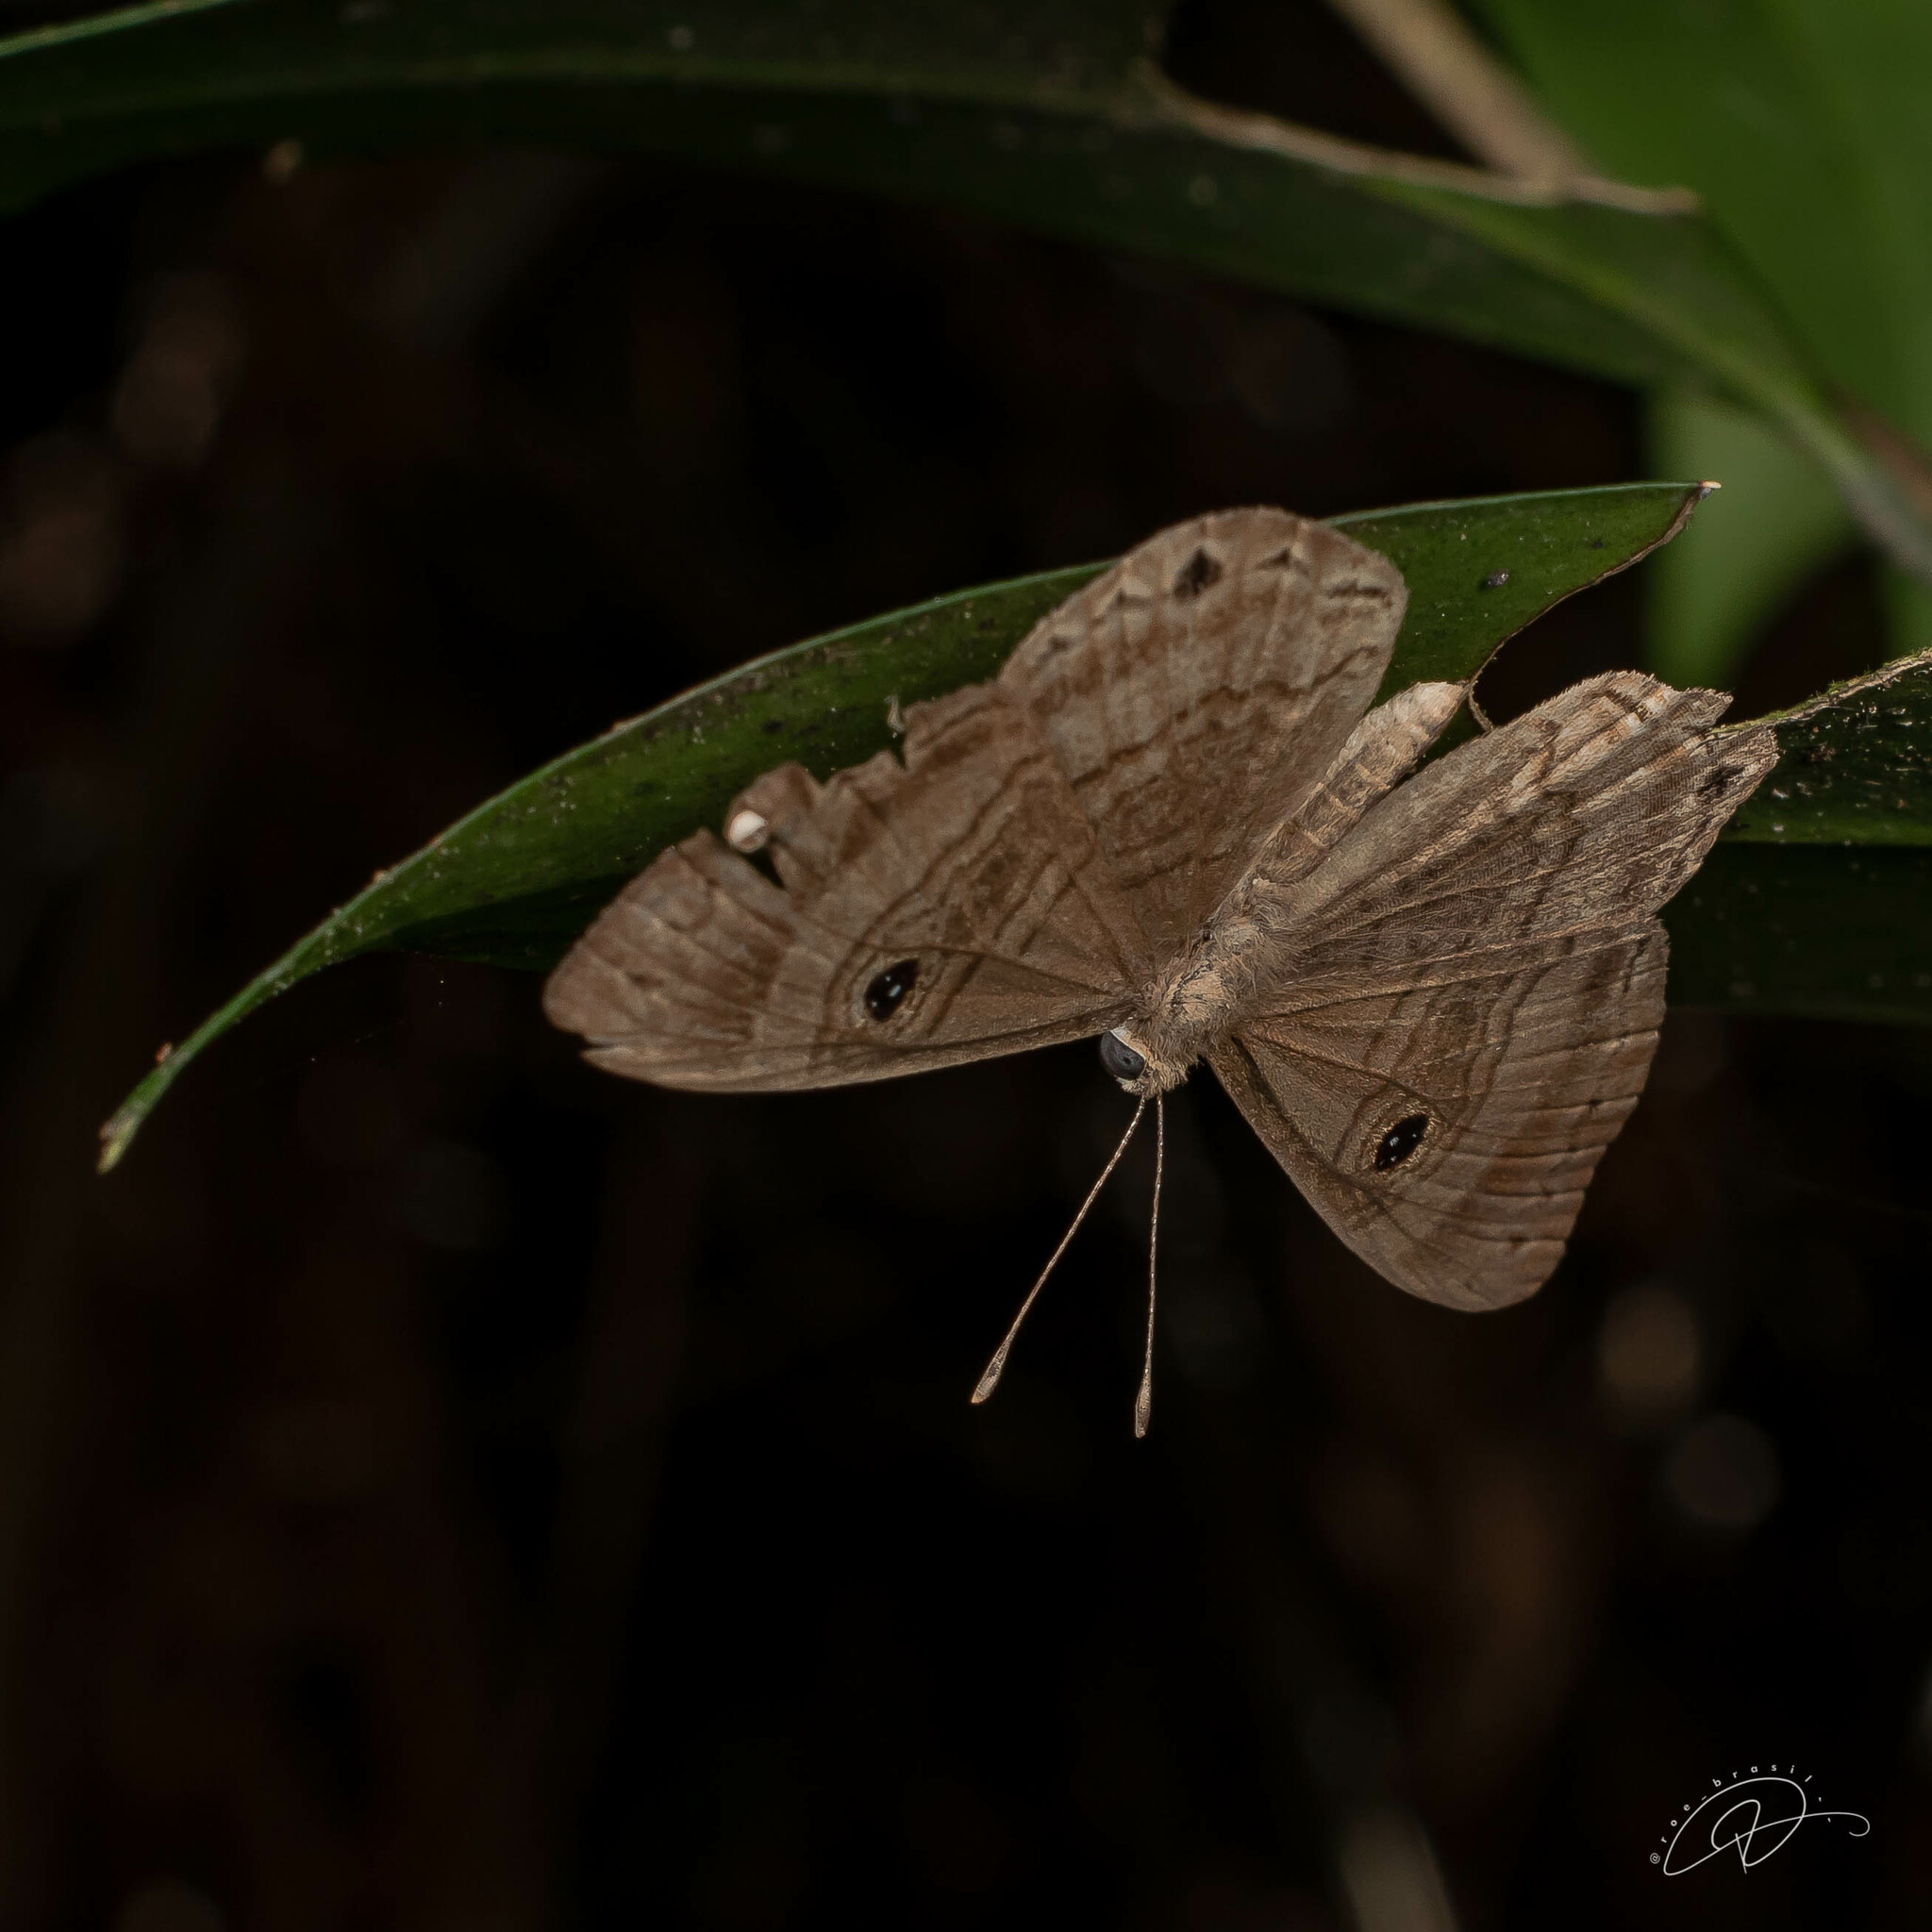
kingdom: Animalia
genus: Mesosemia
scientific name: Mesosemia odice
